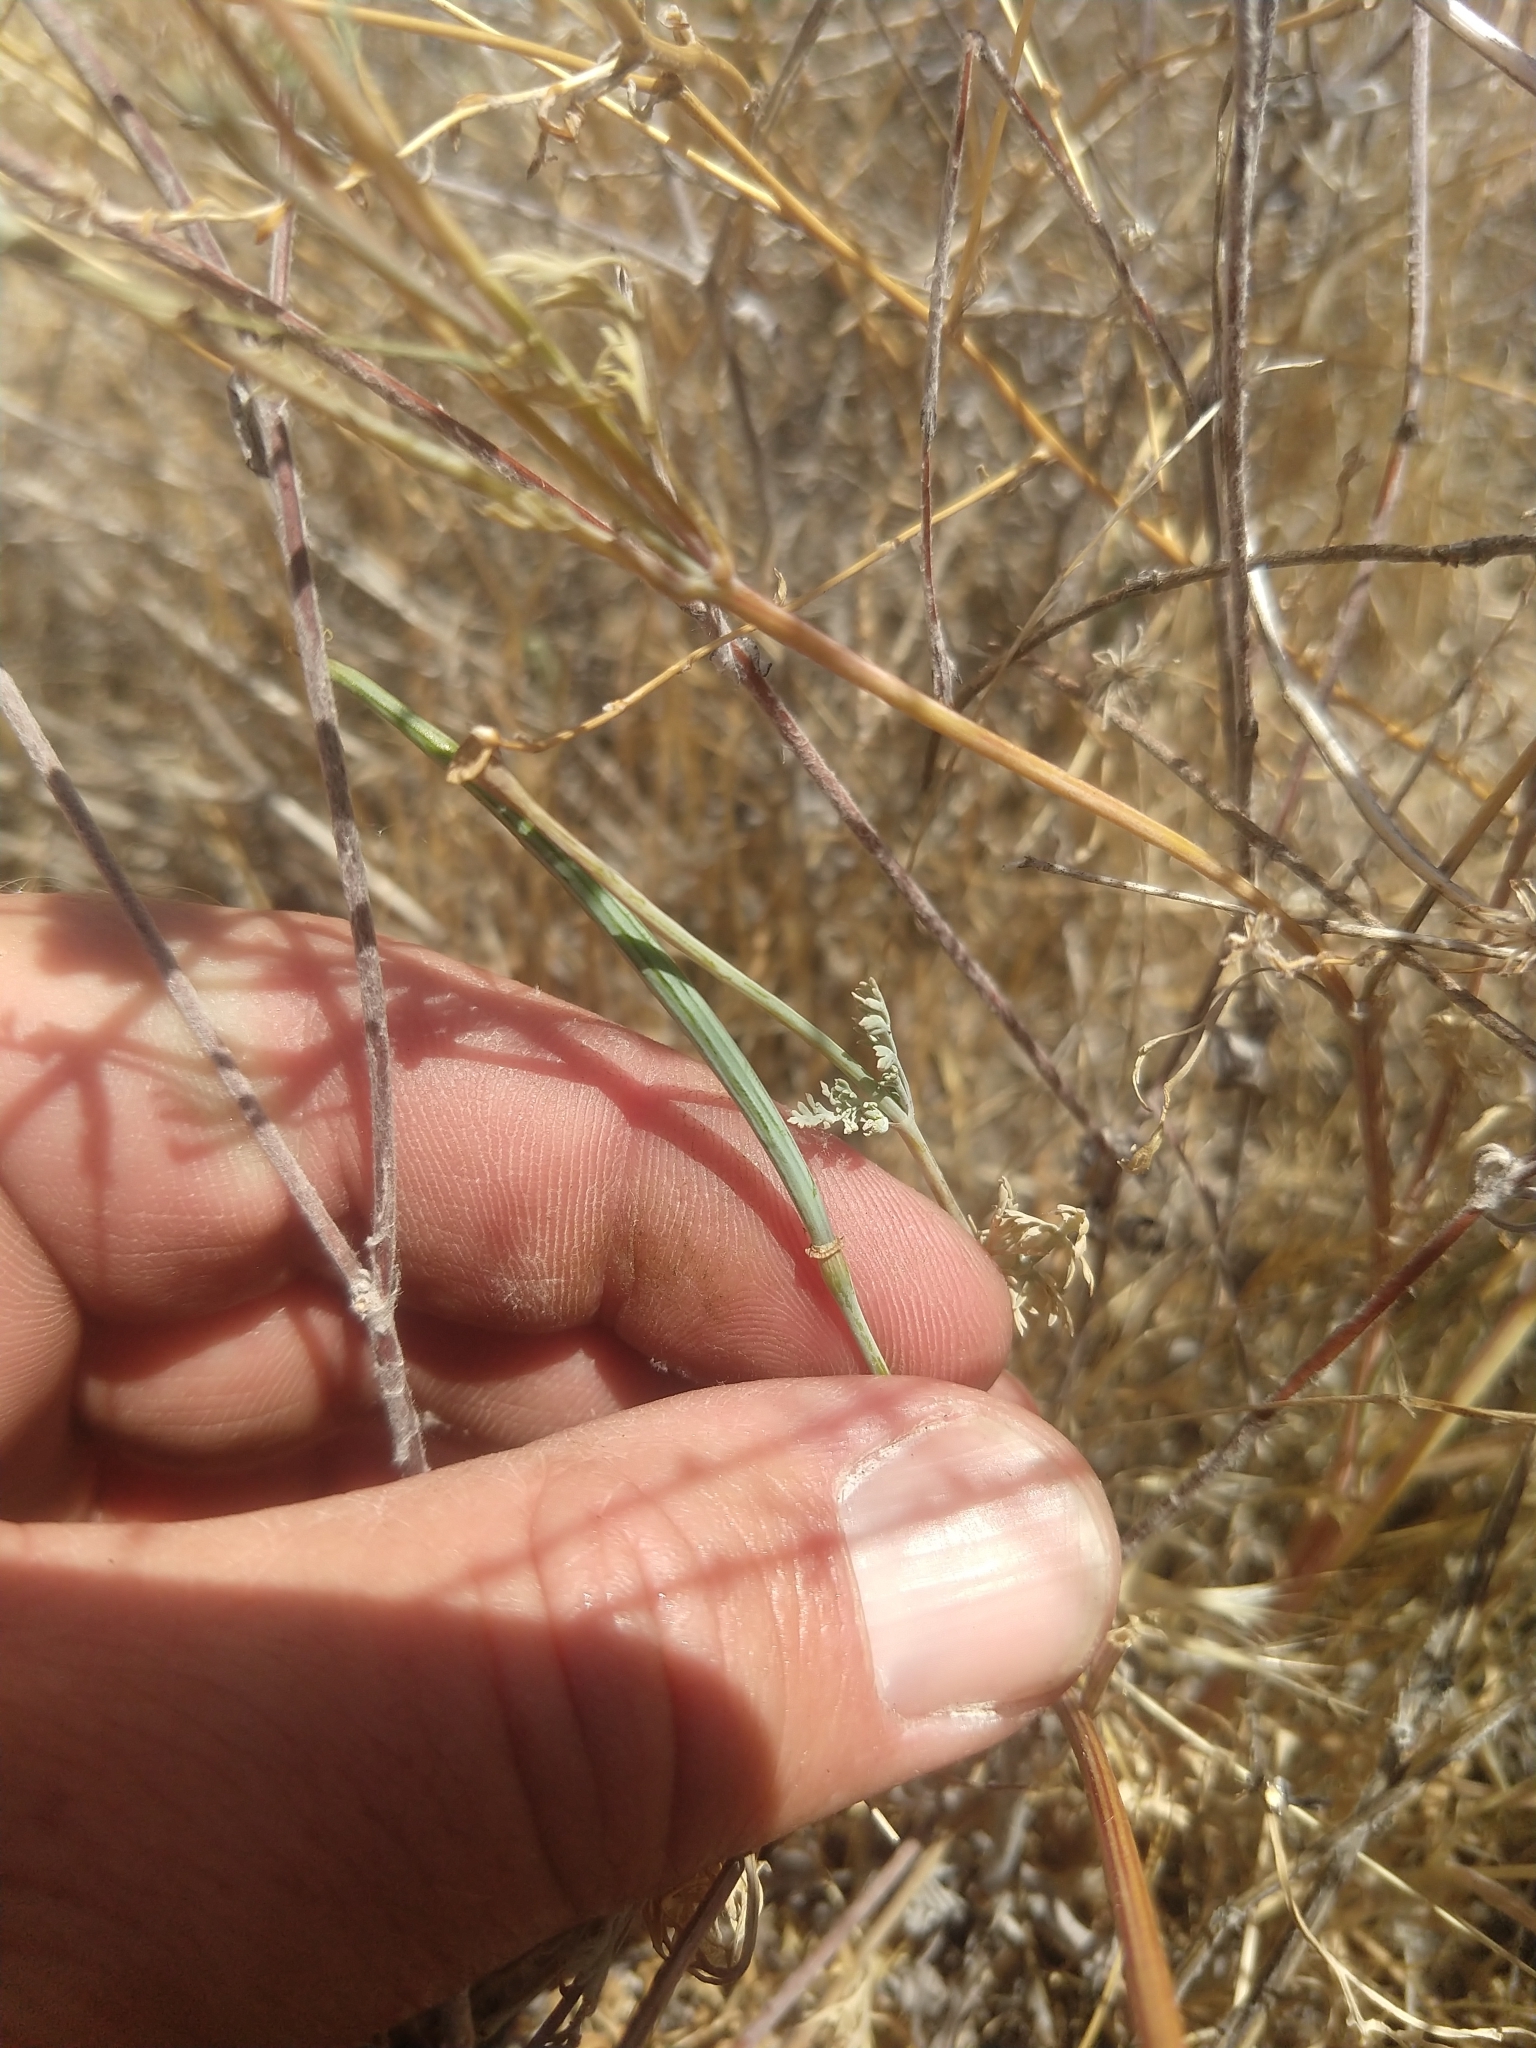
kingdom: Plantae
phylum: Tracheophyta
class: Magnoliopsida
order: Ranunculales
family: Papaveraceae
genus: Eschscholzia
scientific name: Eschscholzia caespitosa
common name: Tufted california-poppy
